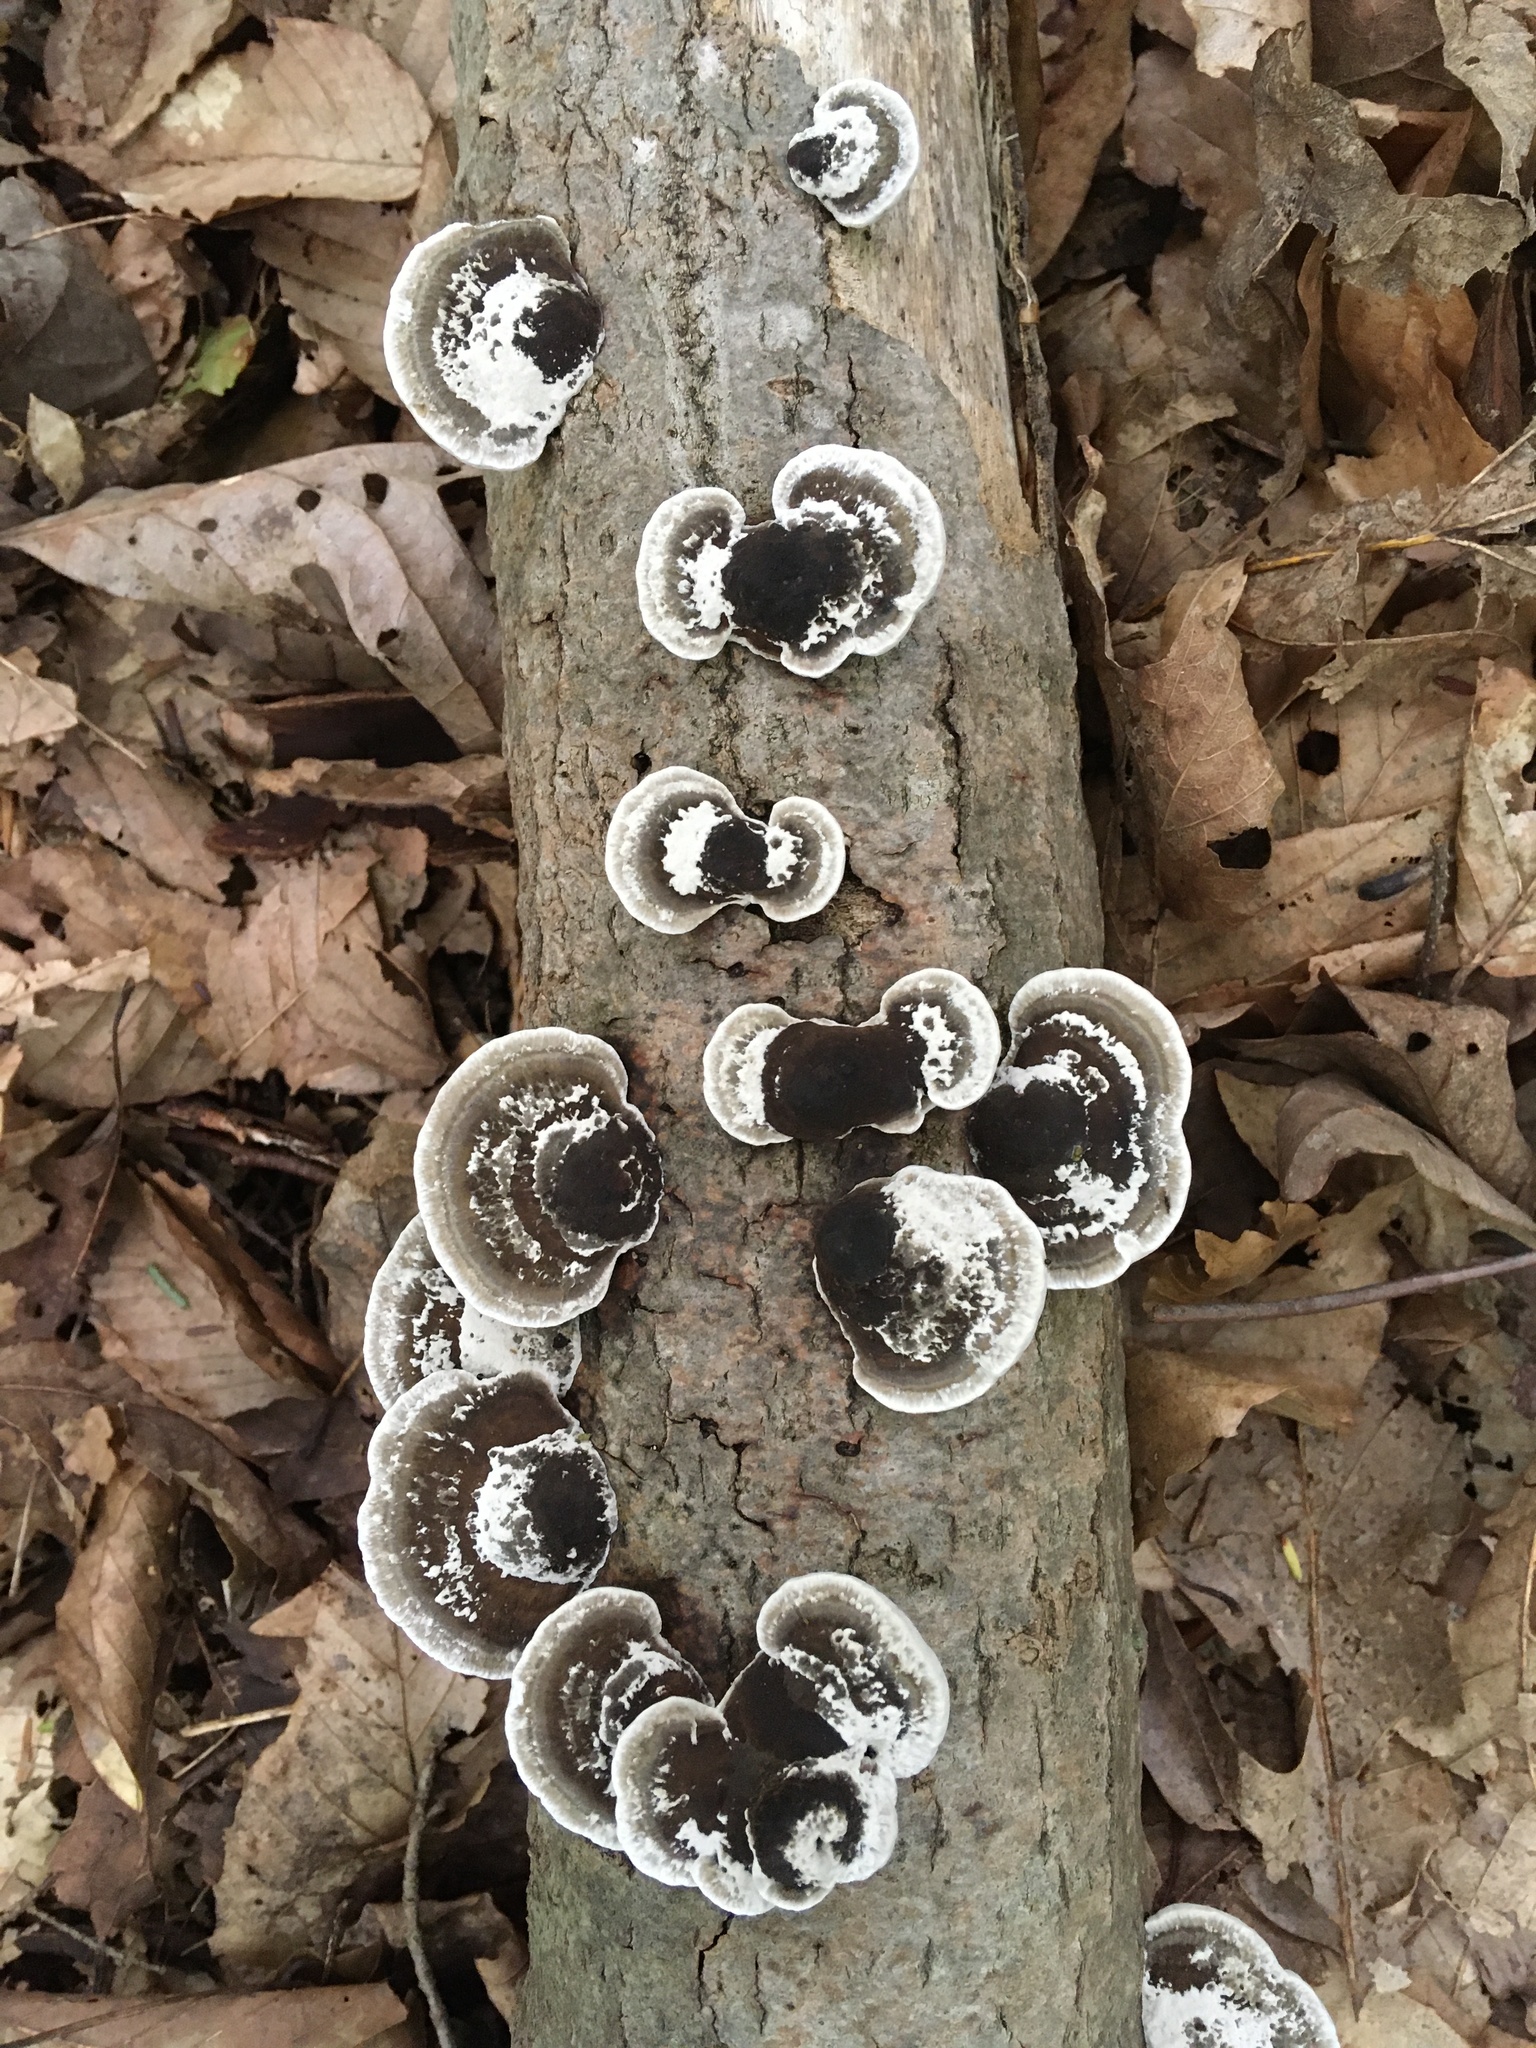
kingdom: Fungi
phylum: Basidiomycota
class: Agaricomycetes
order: Polyporales
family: Polyporaceae
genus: Daedaleopsis
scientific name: Daedaleopsis confragosa
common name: Blushing bracket
